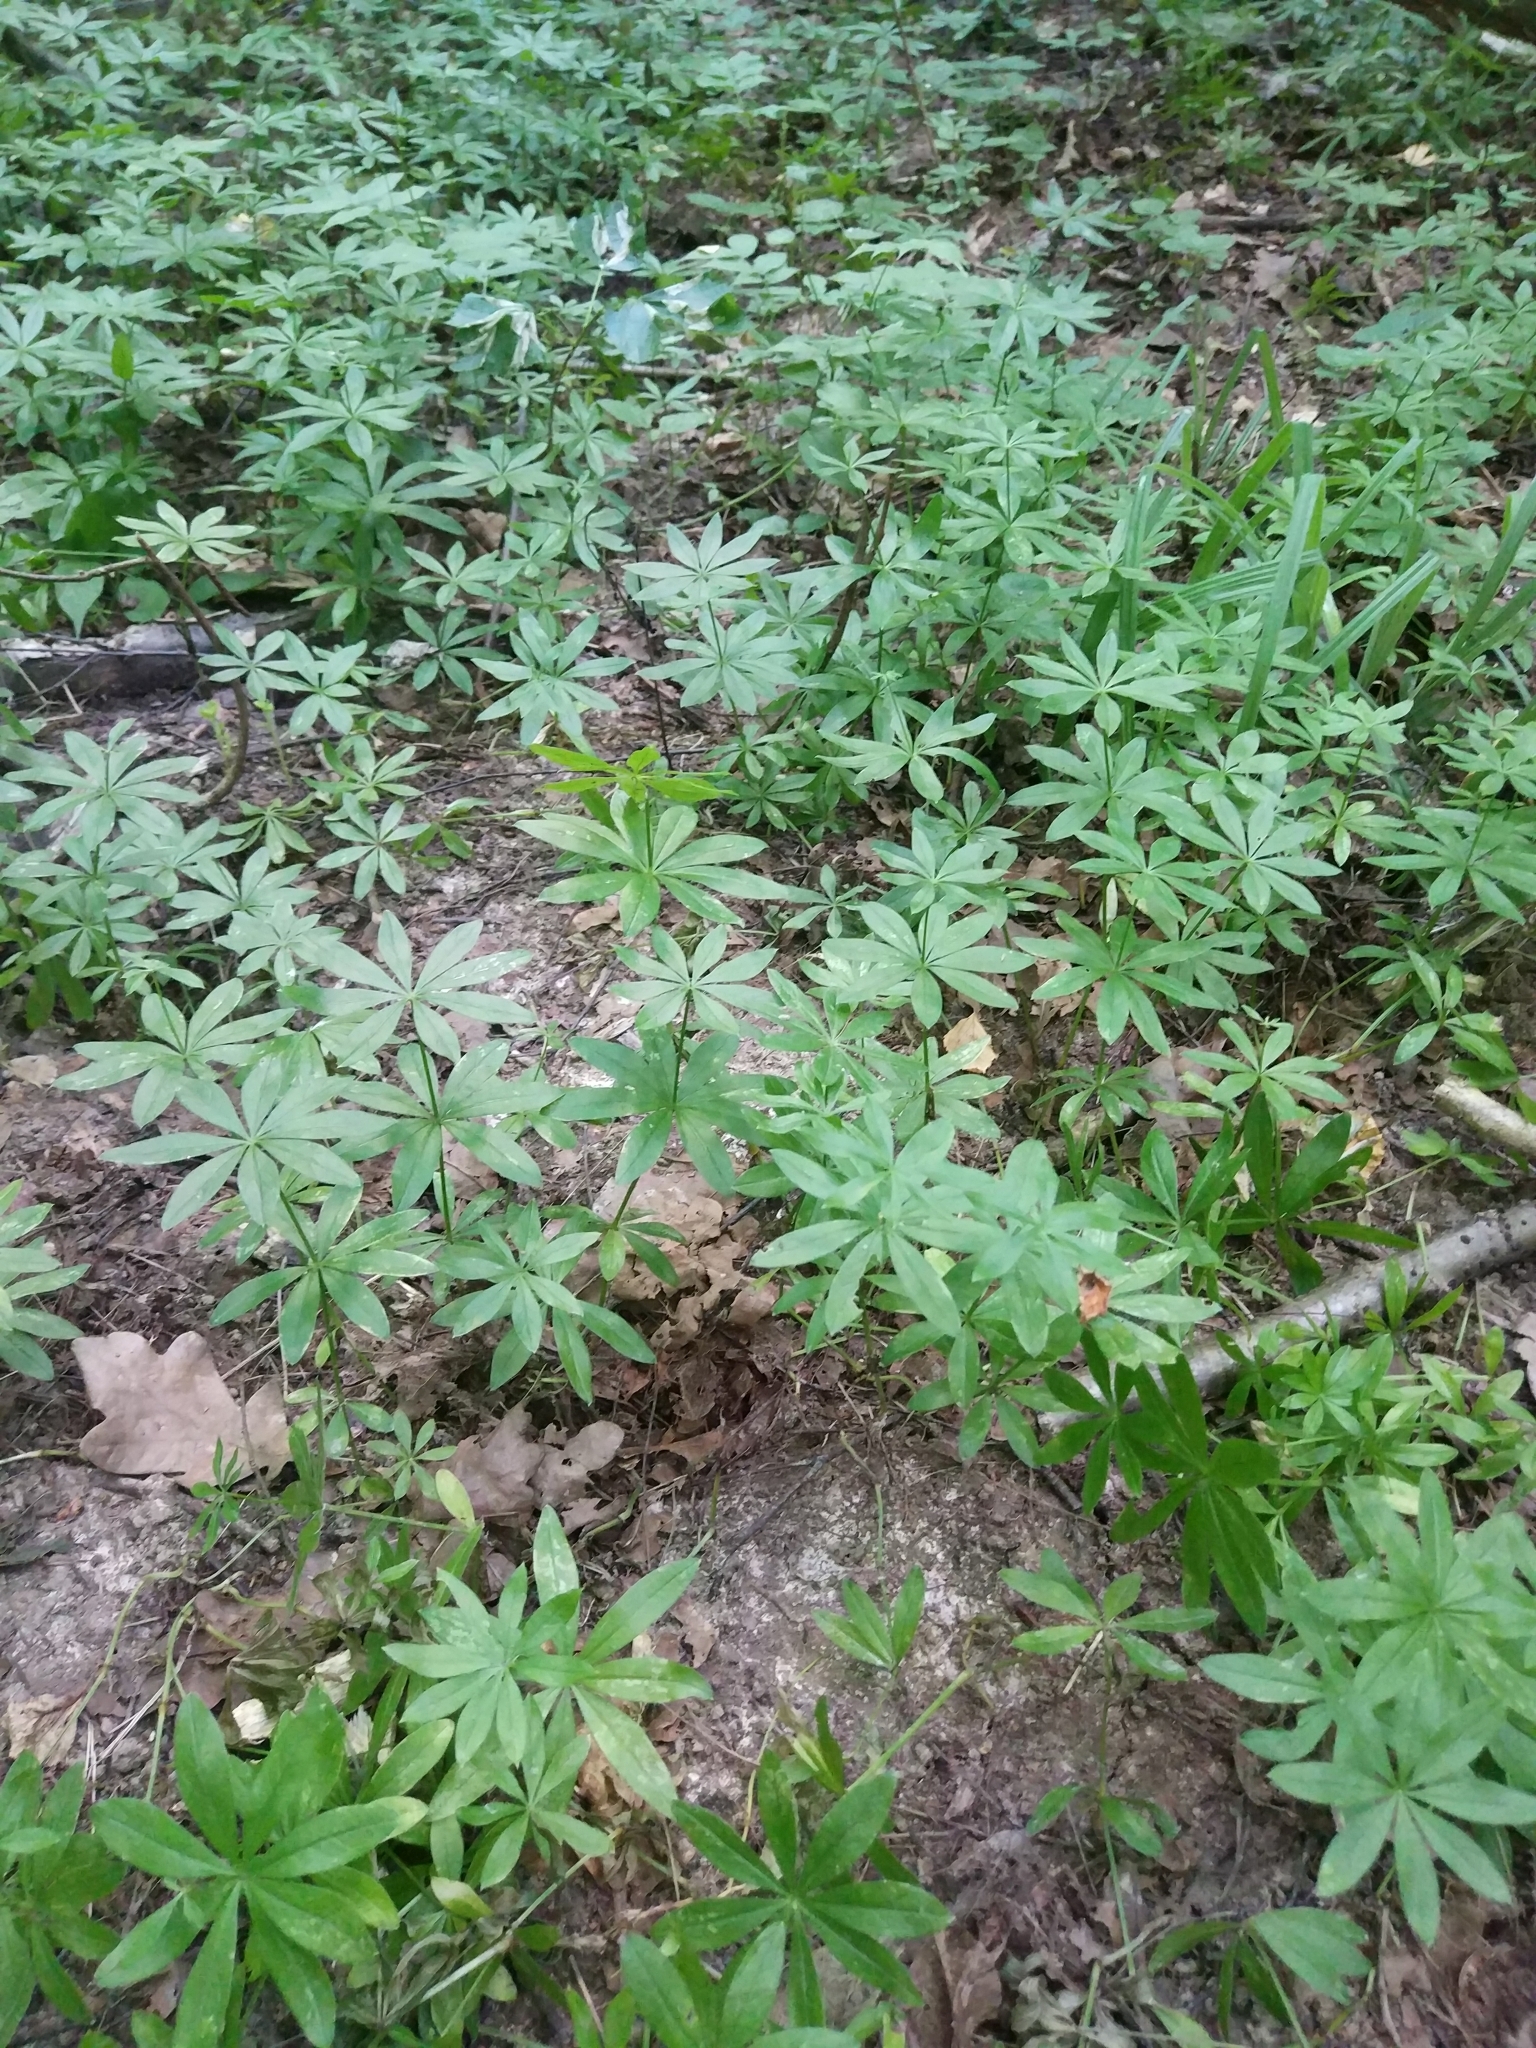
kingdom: Plantae
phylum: Tracheophyta
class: Magnoliopsida
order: Gentianales
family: Rubiaceae
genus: Galium
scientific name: Galium odoratum
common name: Sweet woodruff
